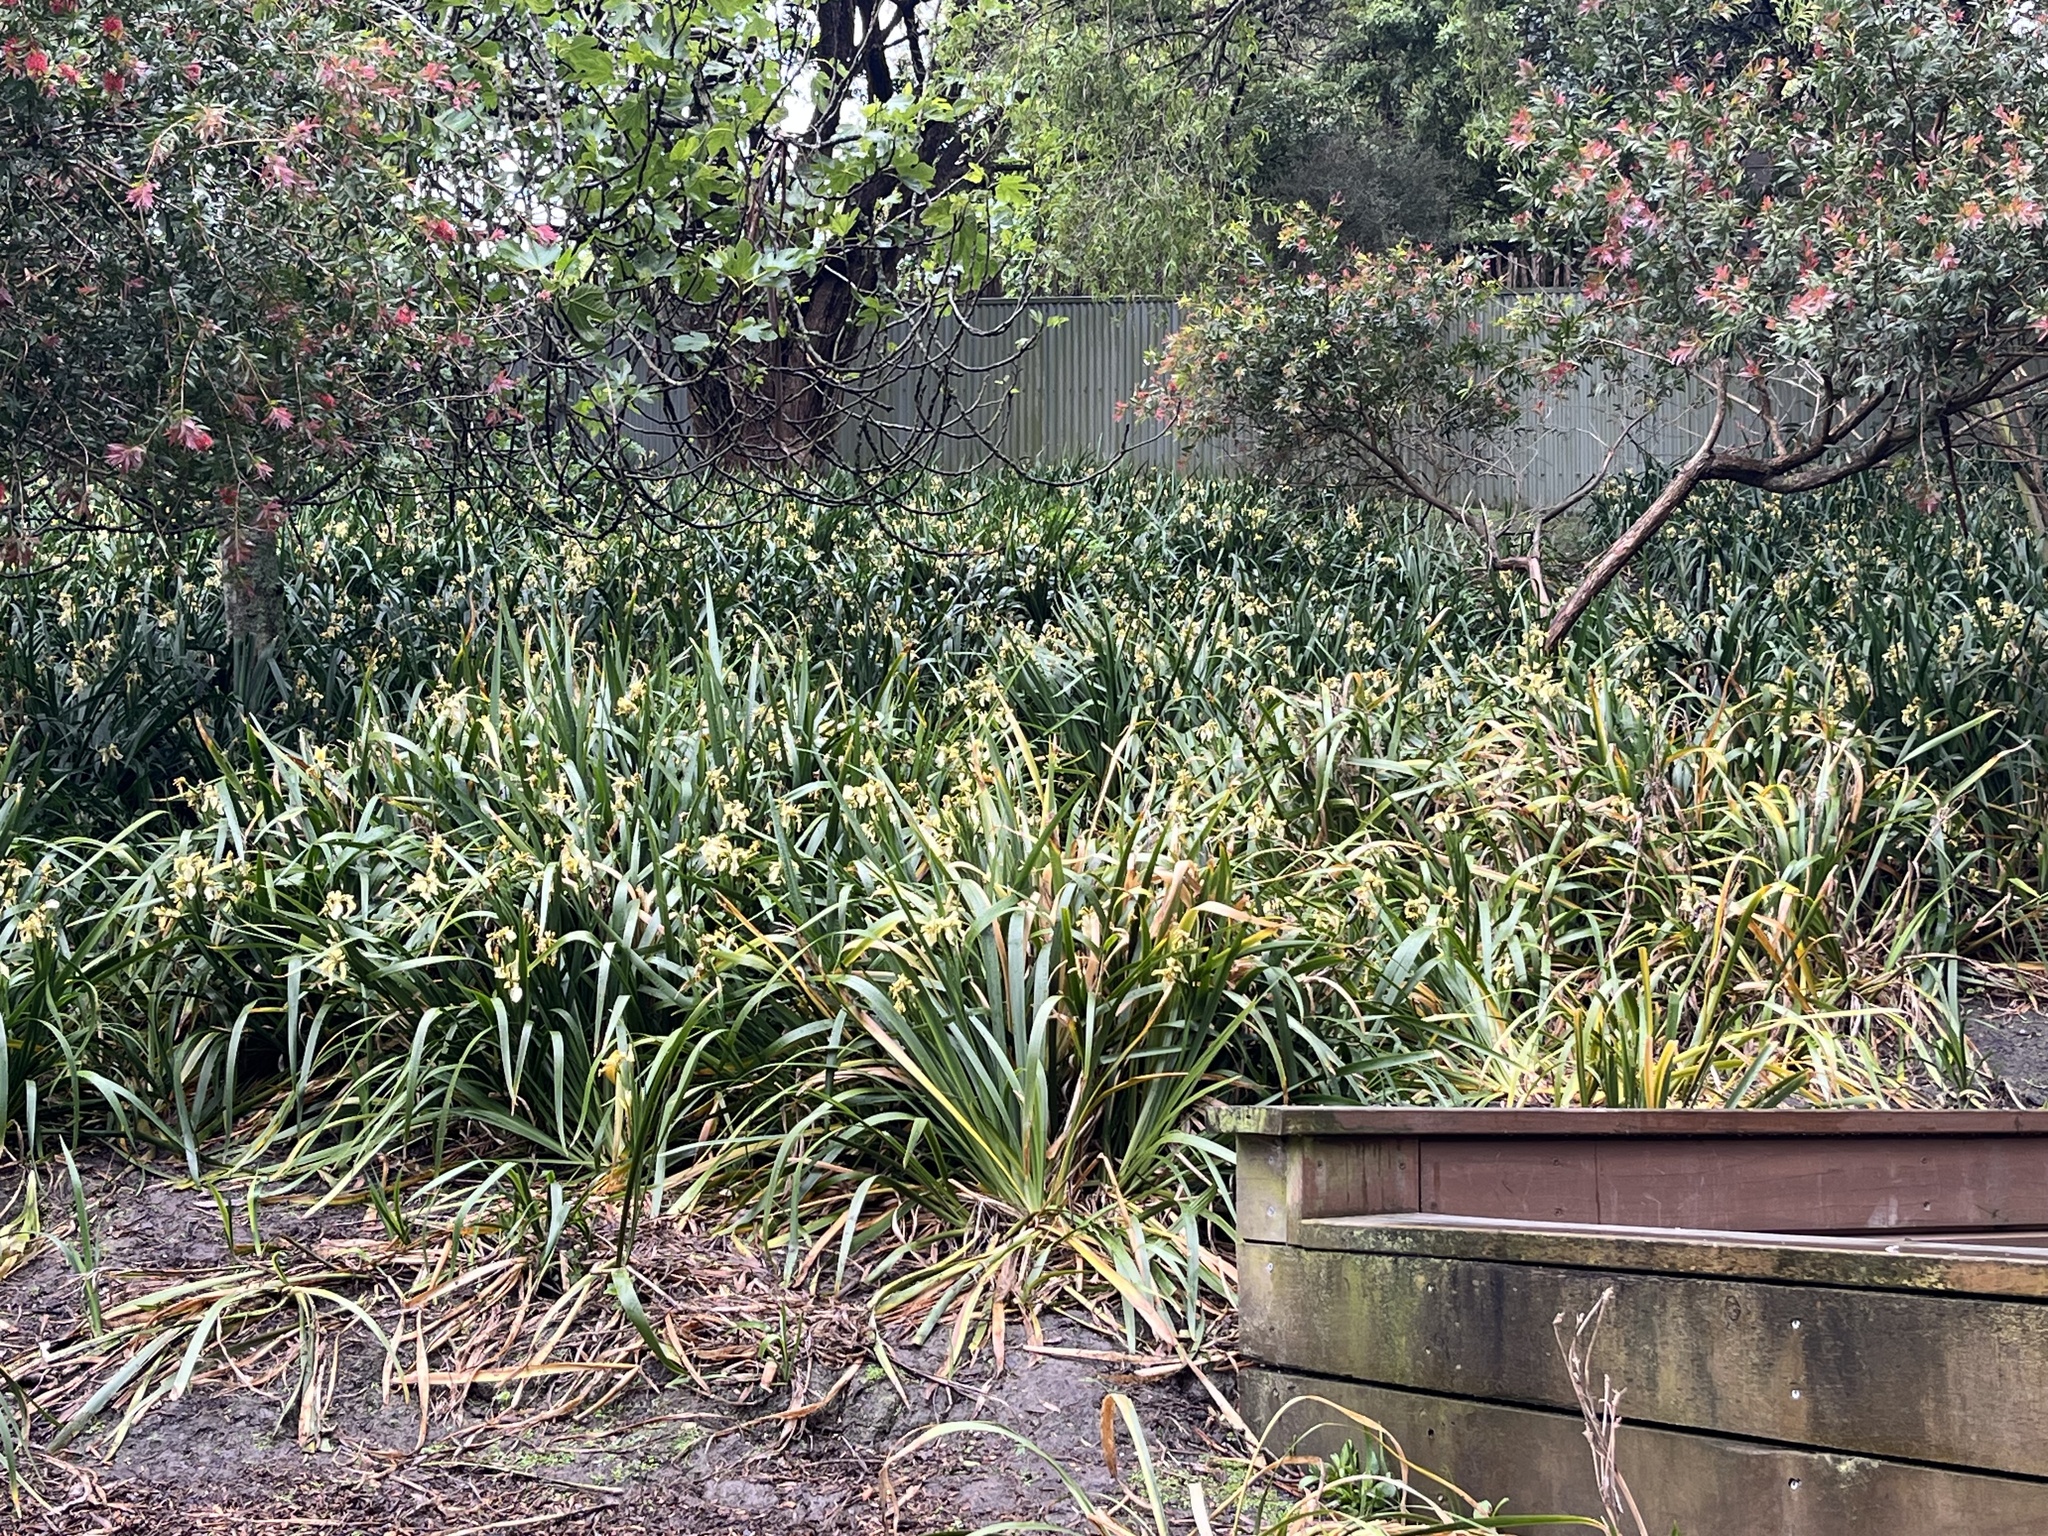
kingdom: Plantae
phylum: Tracheophyta
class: Liliopsida
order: Asparagales
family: Iridaceae
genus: Iris
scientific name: Iris foetidissima
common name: Stinking iris
